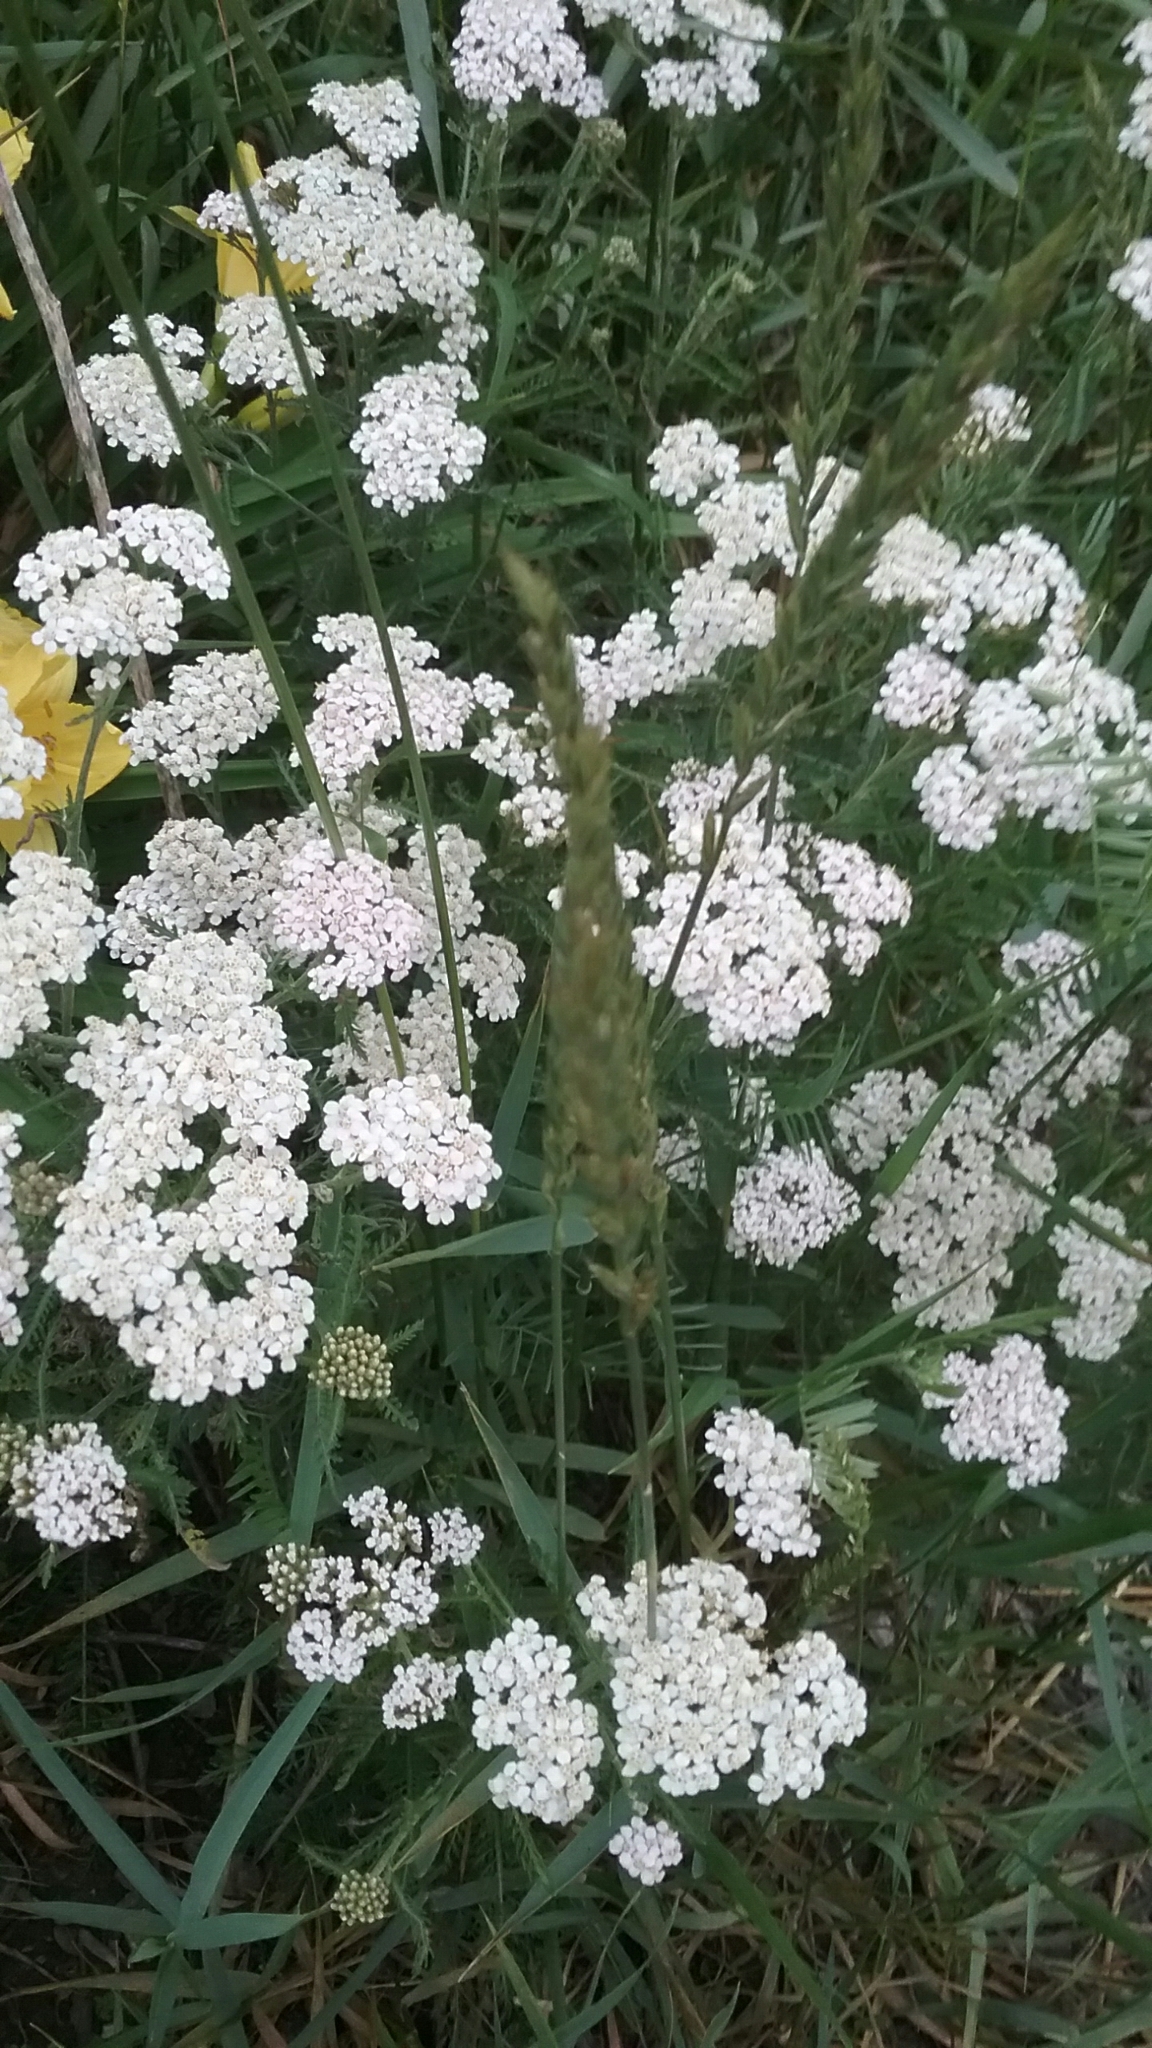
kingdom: Plantae
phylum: Tracheophyta
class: Magnoliopsida
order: Asterales
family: Asteraceae
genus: Achillea
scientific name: Achillea millefolium
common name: Yarrow
